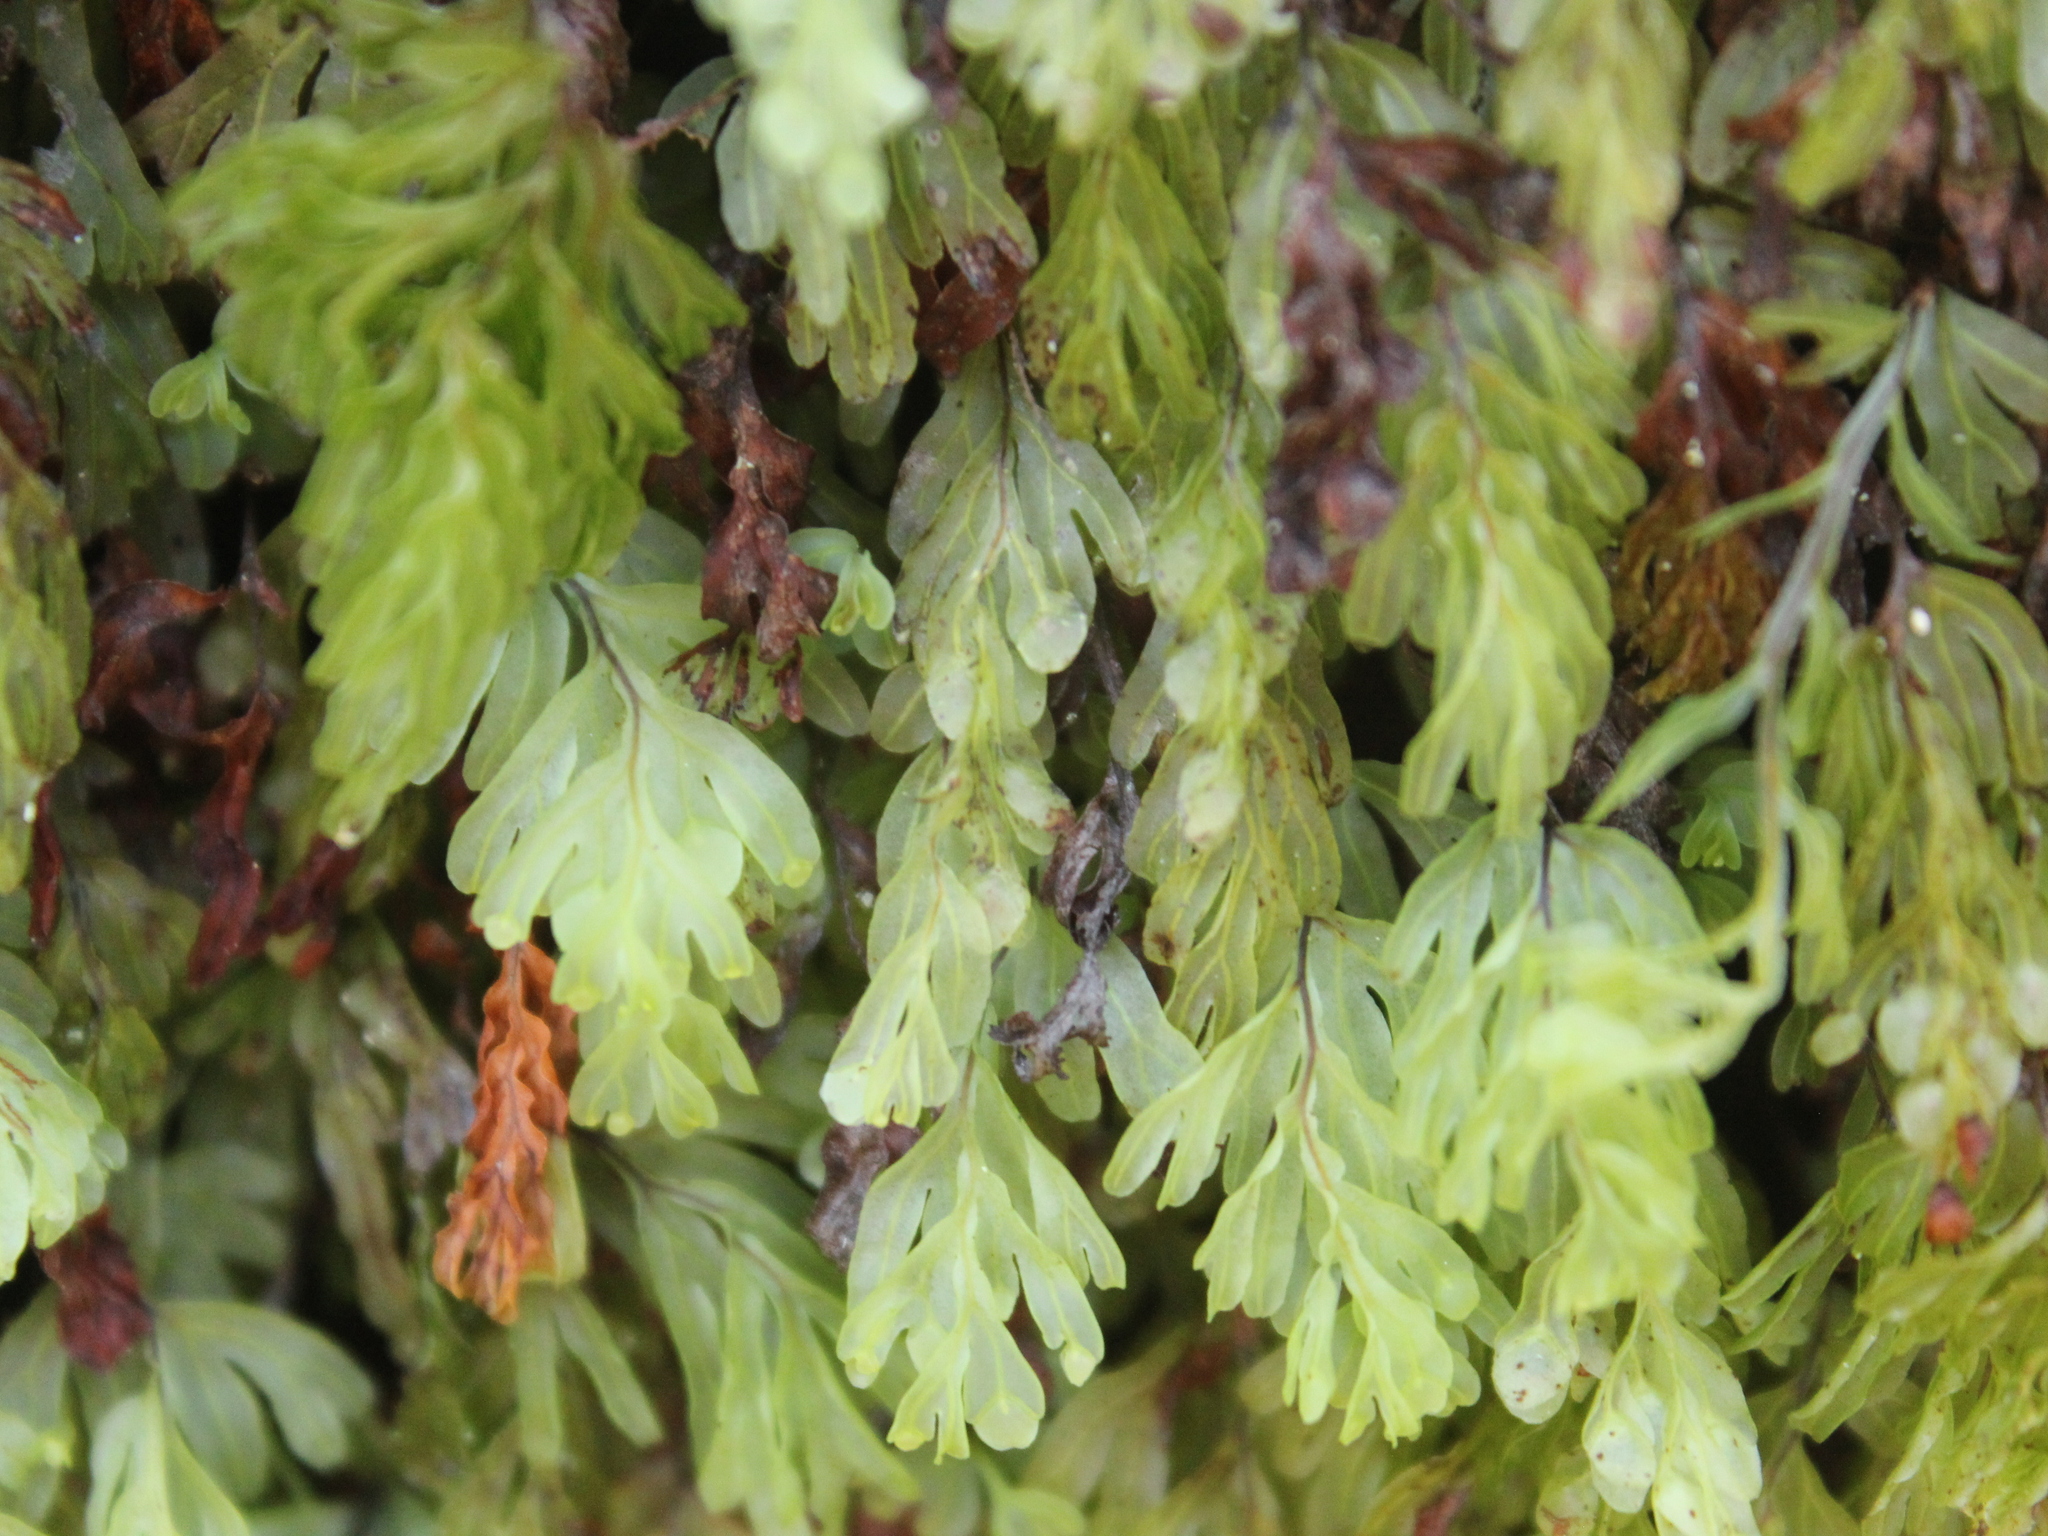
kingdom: Plantae
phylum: Tracheophyta
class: Polypodiopsida
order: Hymenophyllales
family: Hymenophyllaceae
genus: Hymenophyllum
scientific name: Hymenophyllum rarum
